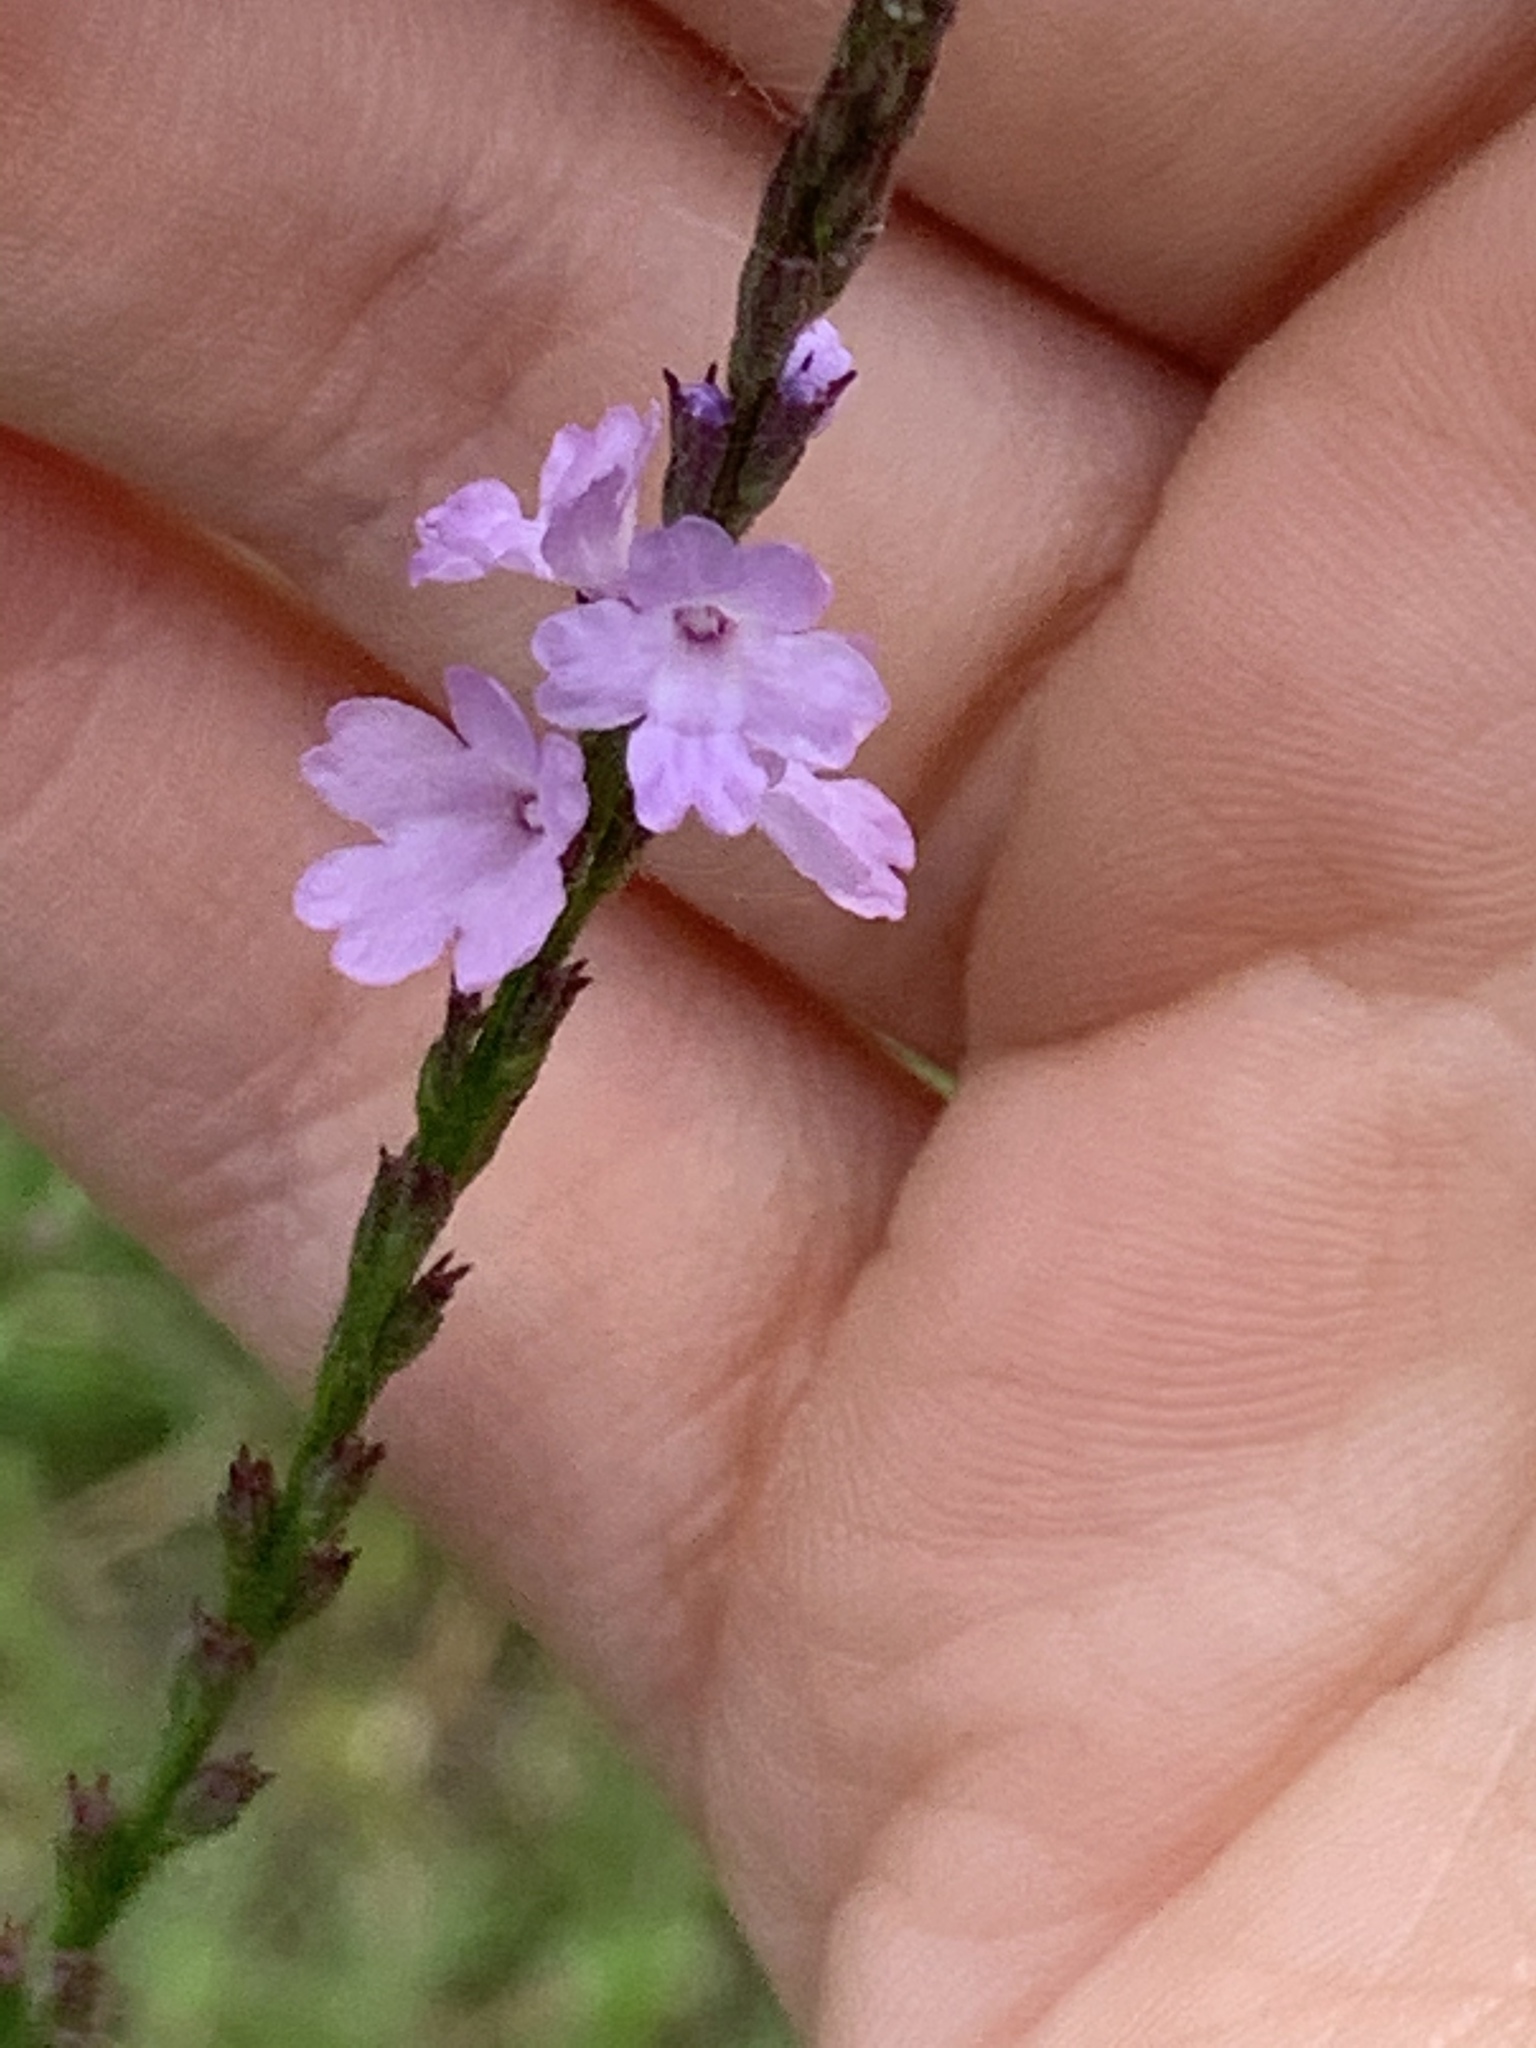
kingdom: Plantae
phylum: Tracheophyta
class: Magnoliopsida
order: Lamiales
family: Verbenaceae
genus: Verbena
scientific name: Verbena halei
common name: Texas vervain
